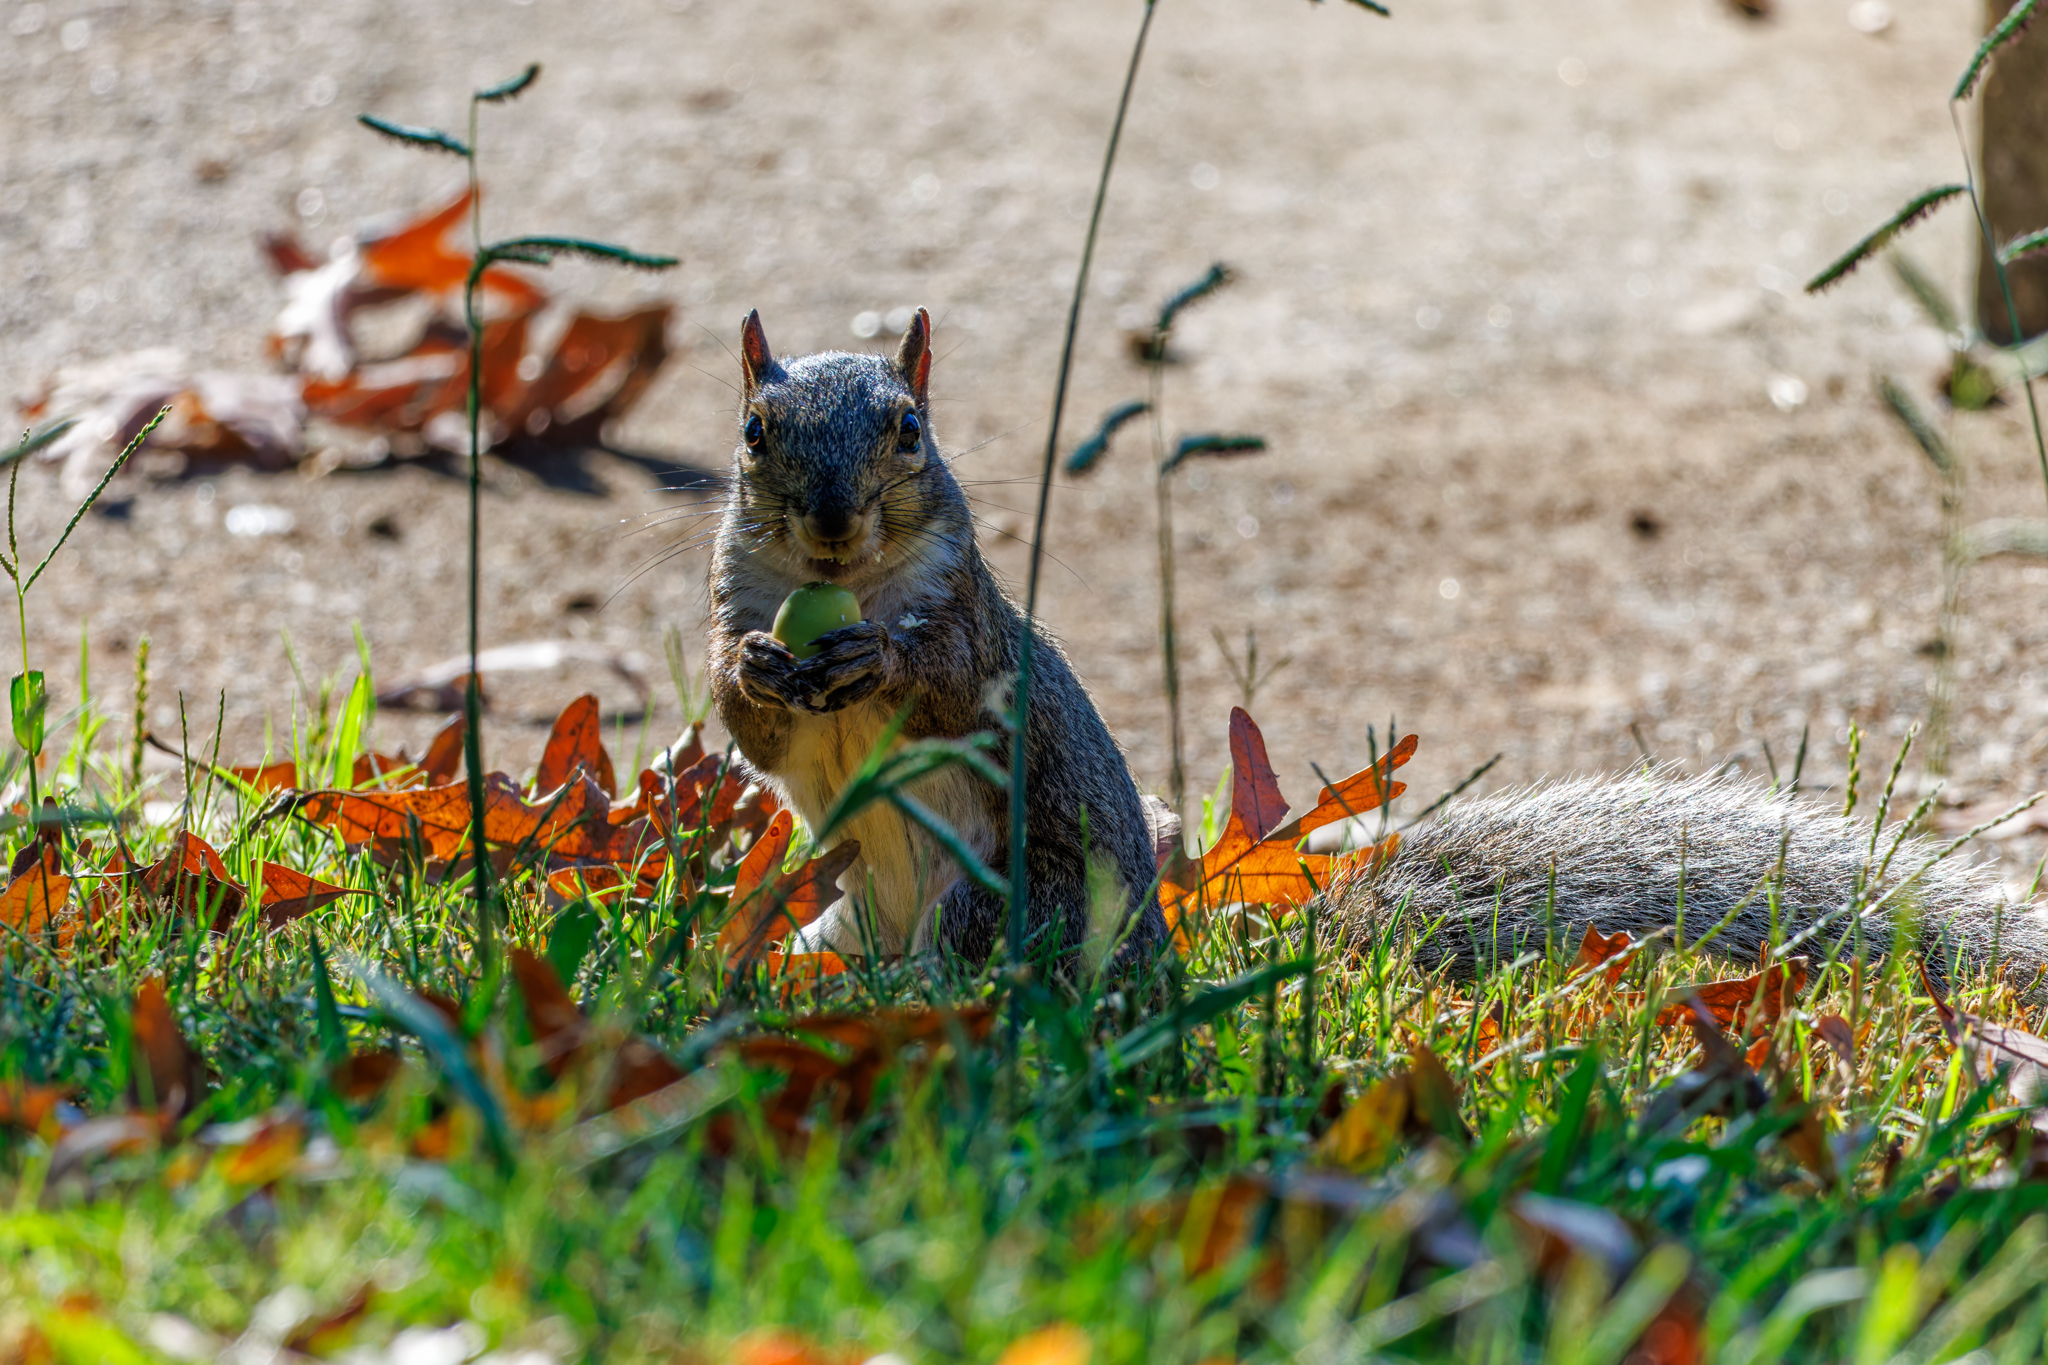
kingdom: Animalia
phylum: Chordata
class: Mammalia
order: Rodentia
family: Sciuridae
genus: Sciurus
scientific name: Sciurus carolinensis
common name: Eastern gray squirrel
